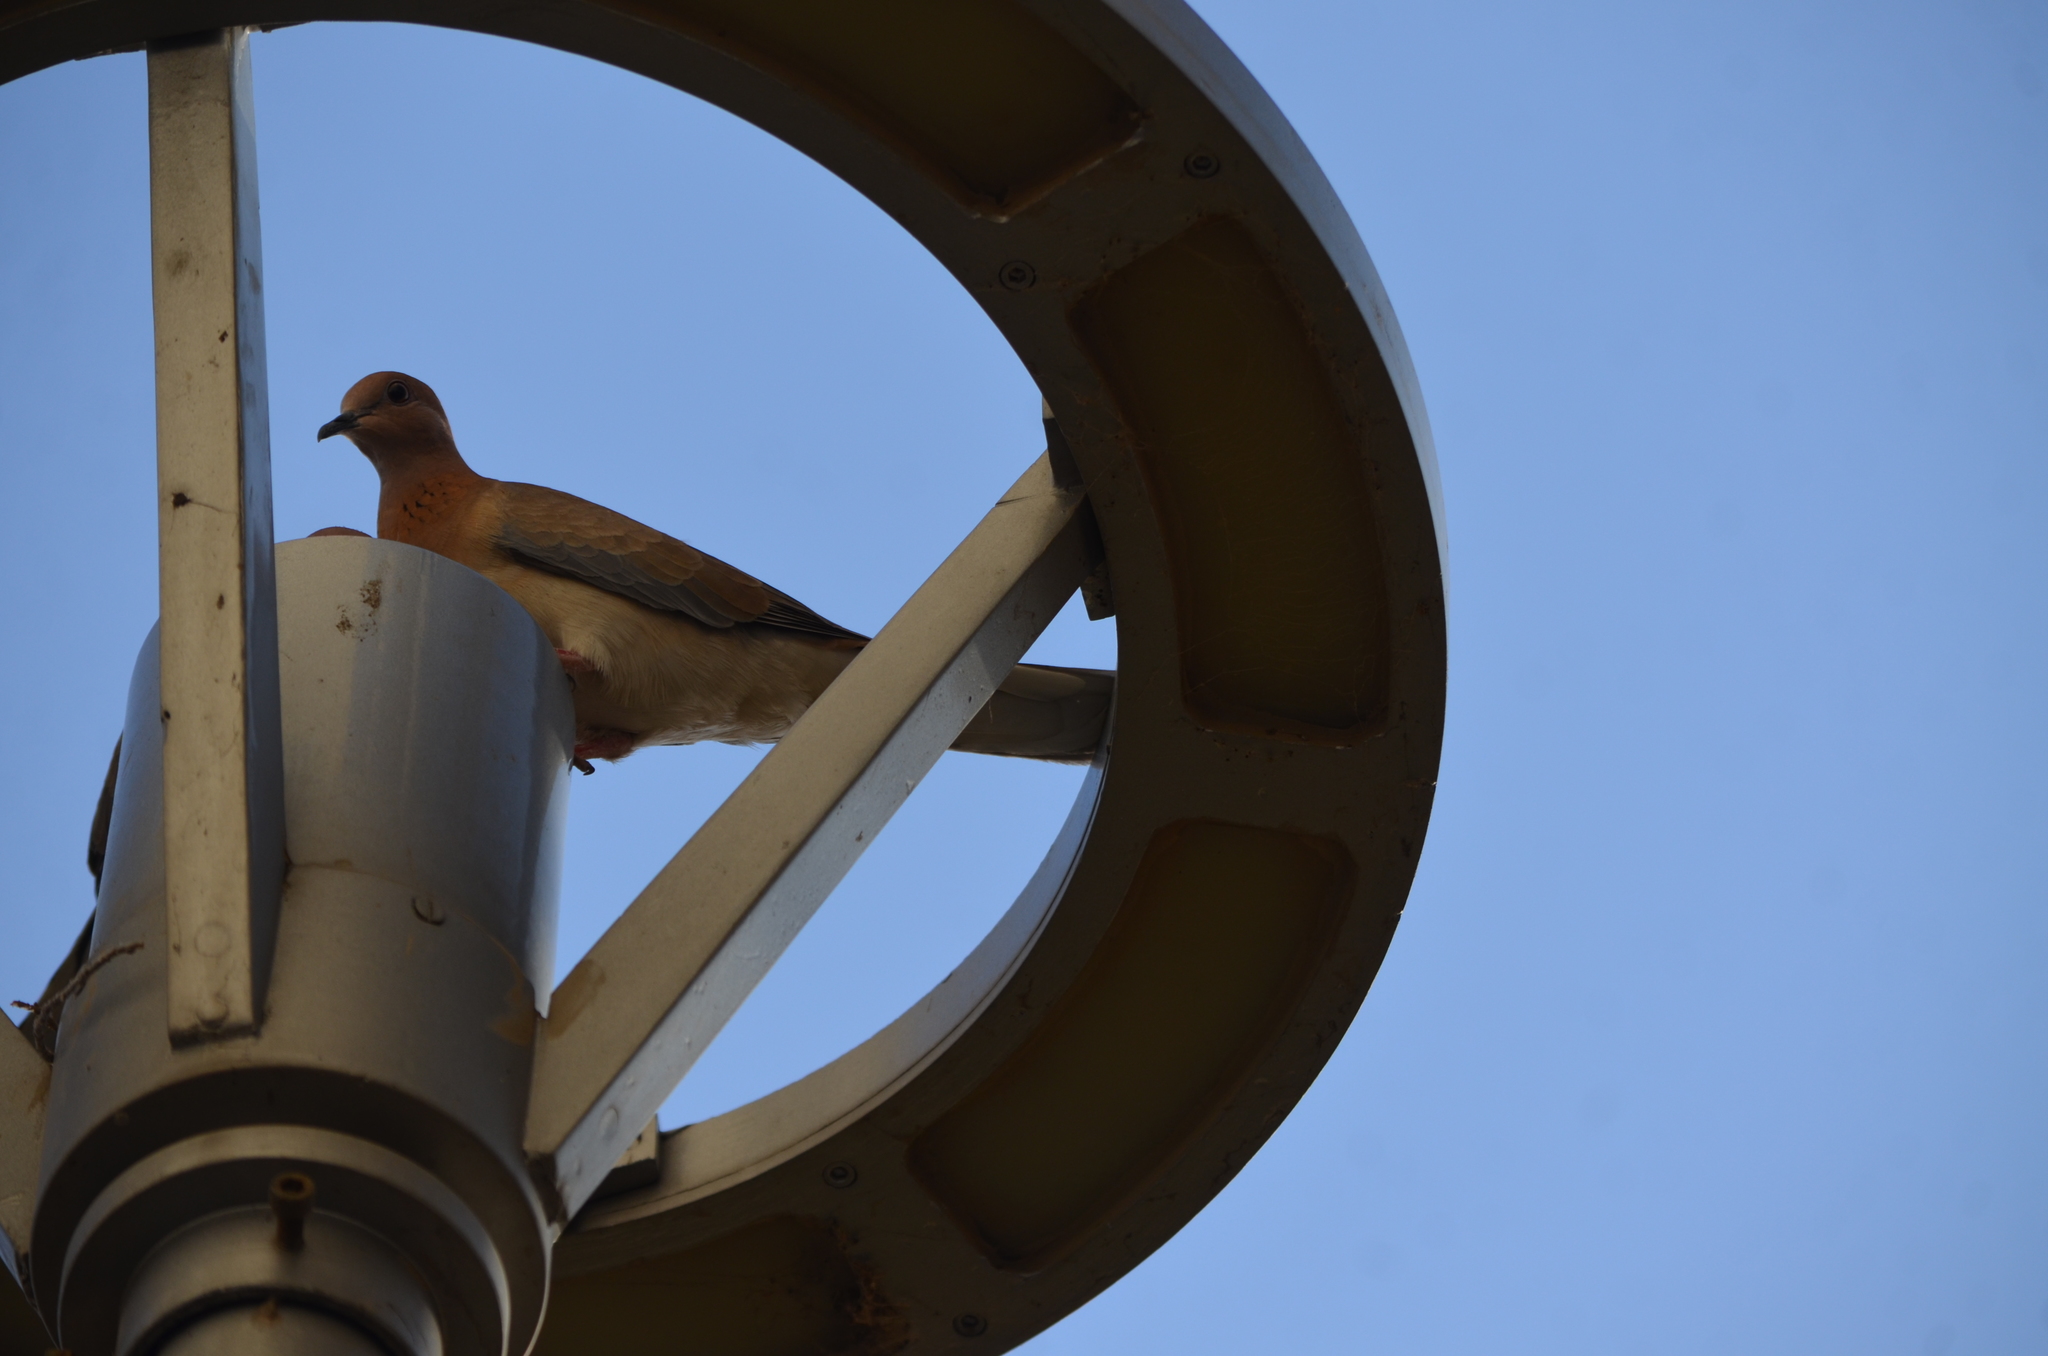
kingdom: Animalia
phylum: Chordata
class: Aves
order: Columbiformes
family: Columbidae
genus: Spilopelia
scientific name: Spilopelia senegalensis
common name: Laughing dove
